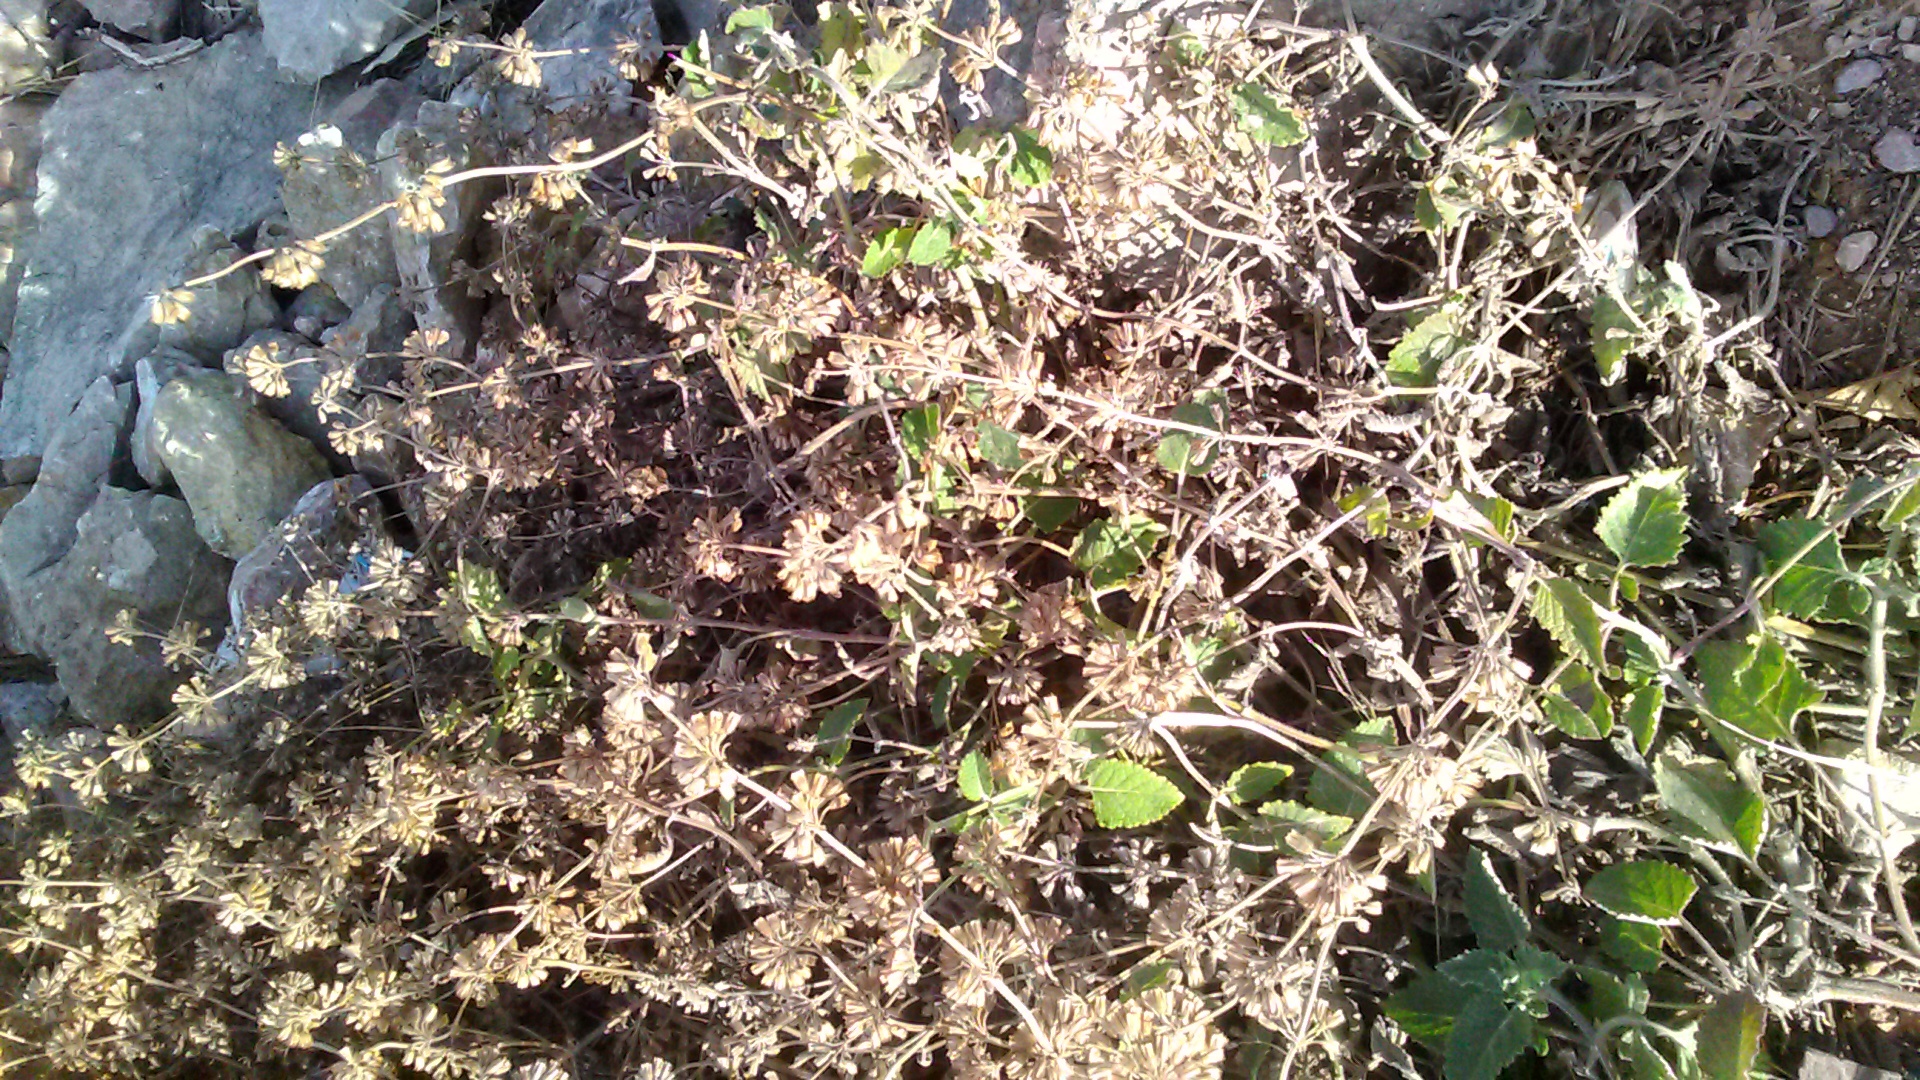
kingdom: Plantae
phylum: Tracheophyta
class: Magnoliopsida
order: Lamiales
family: Lamiaceae
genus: Salvia
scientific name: Salvia verticillata
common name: Whorled clary
